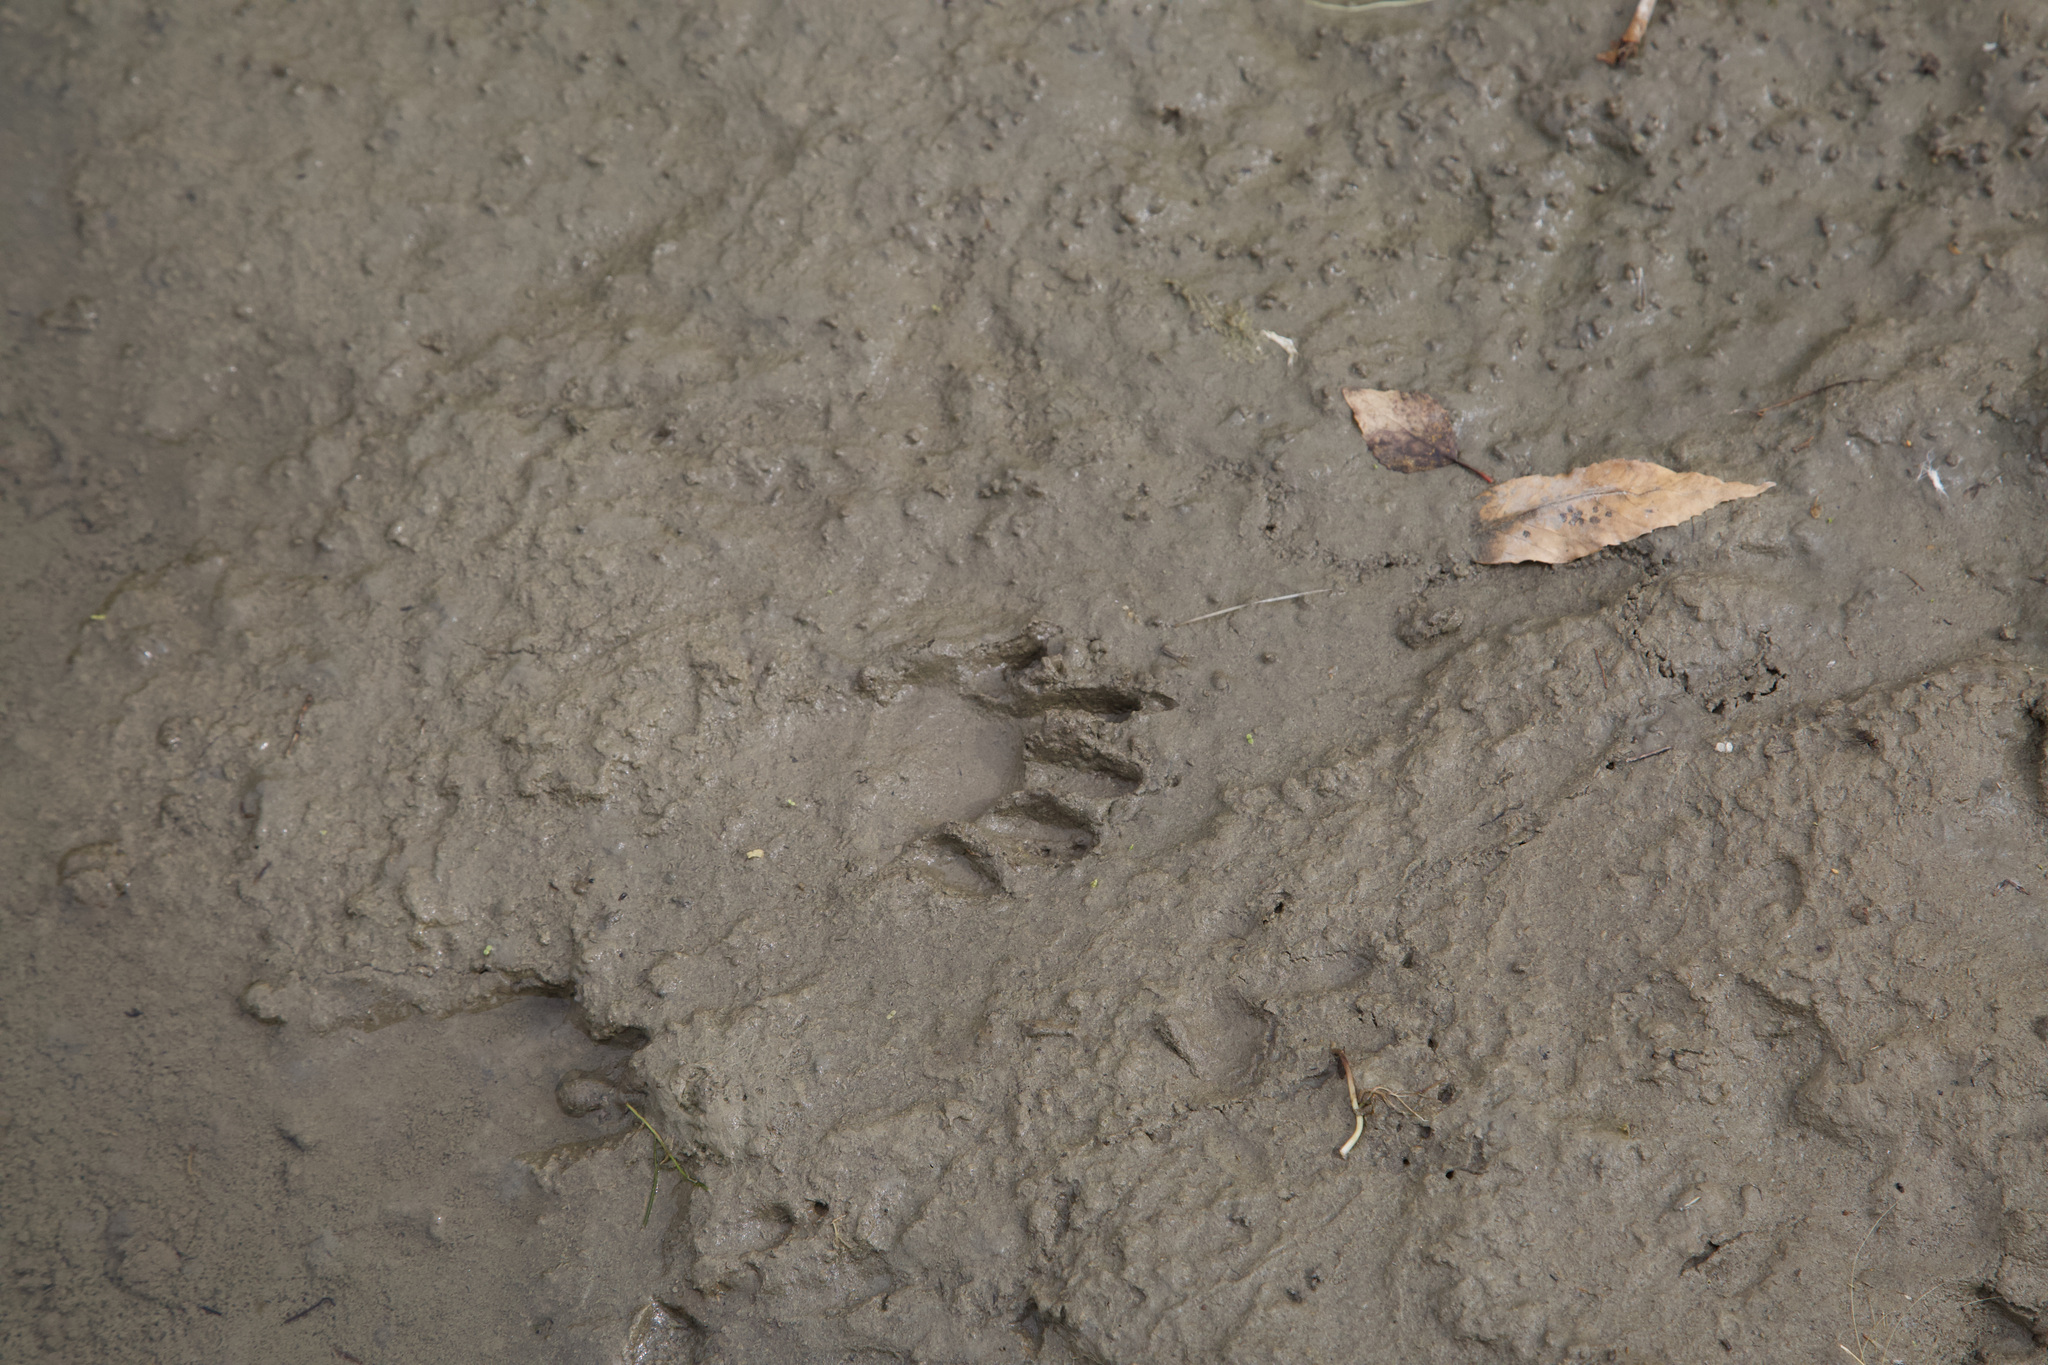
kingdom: Animalia
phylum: Chordata
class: Mammalia
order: Carnivora
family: Procyonidae
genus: Procyon
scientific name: Procyon lotor
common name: Raccoon
